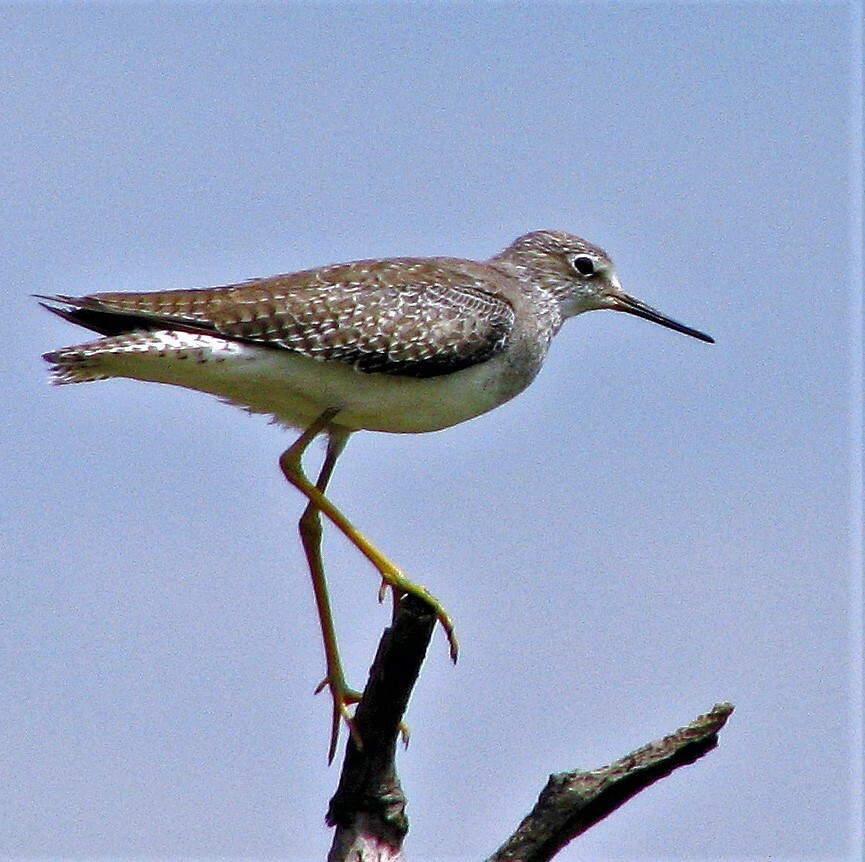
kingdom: Animalia
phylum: Chordata
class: Aves
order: Charadriiformes
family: Scolopacidae
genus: Tringa
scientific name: Tringa flavipes
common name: Lesser yellowlegs
